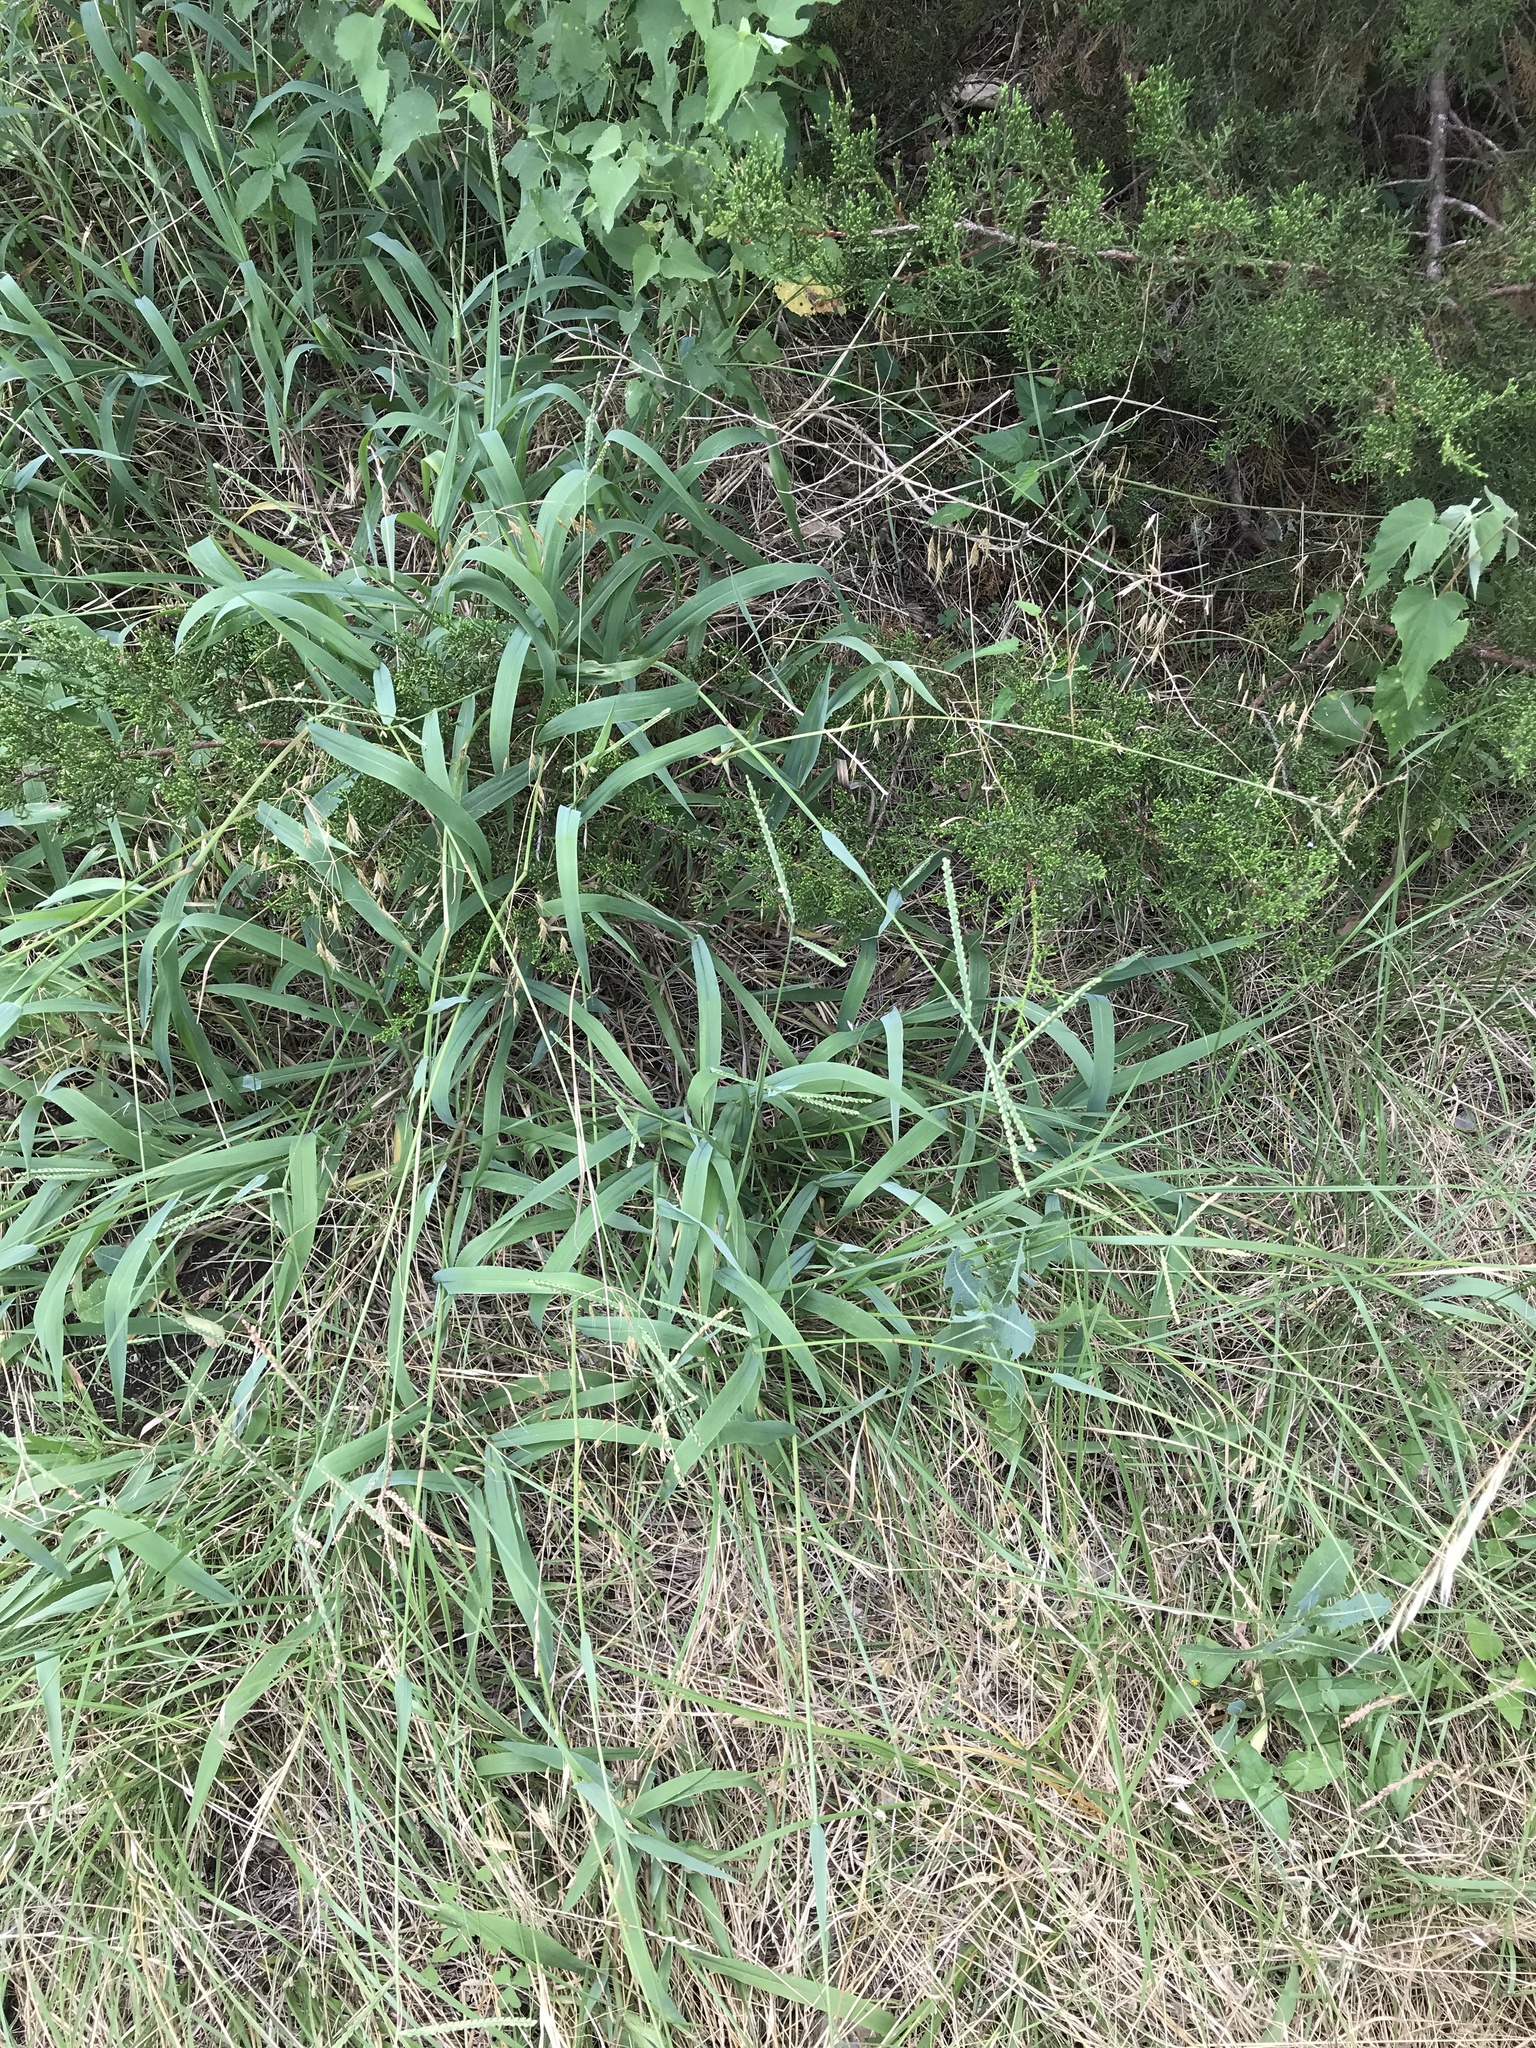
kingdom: Plantae
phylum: Tracheophyta
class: Liliopsida
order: Poales
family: Poaceae
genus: Paspalum
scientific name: Paspalum pubiflorum
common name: Hairy-seed paspalum
